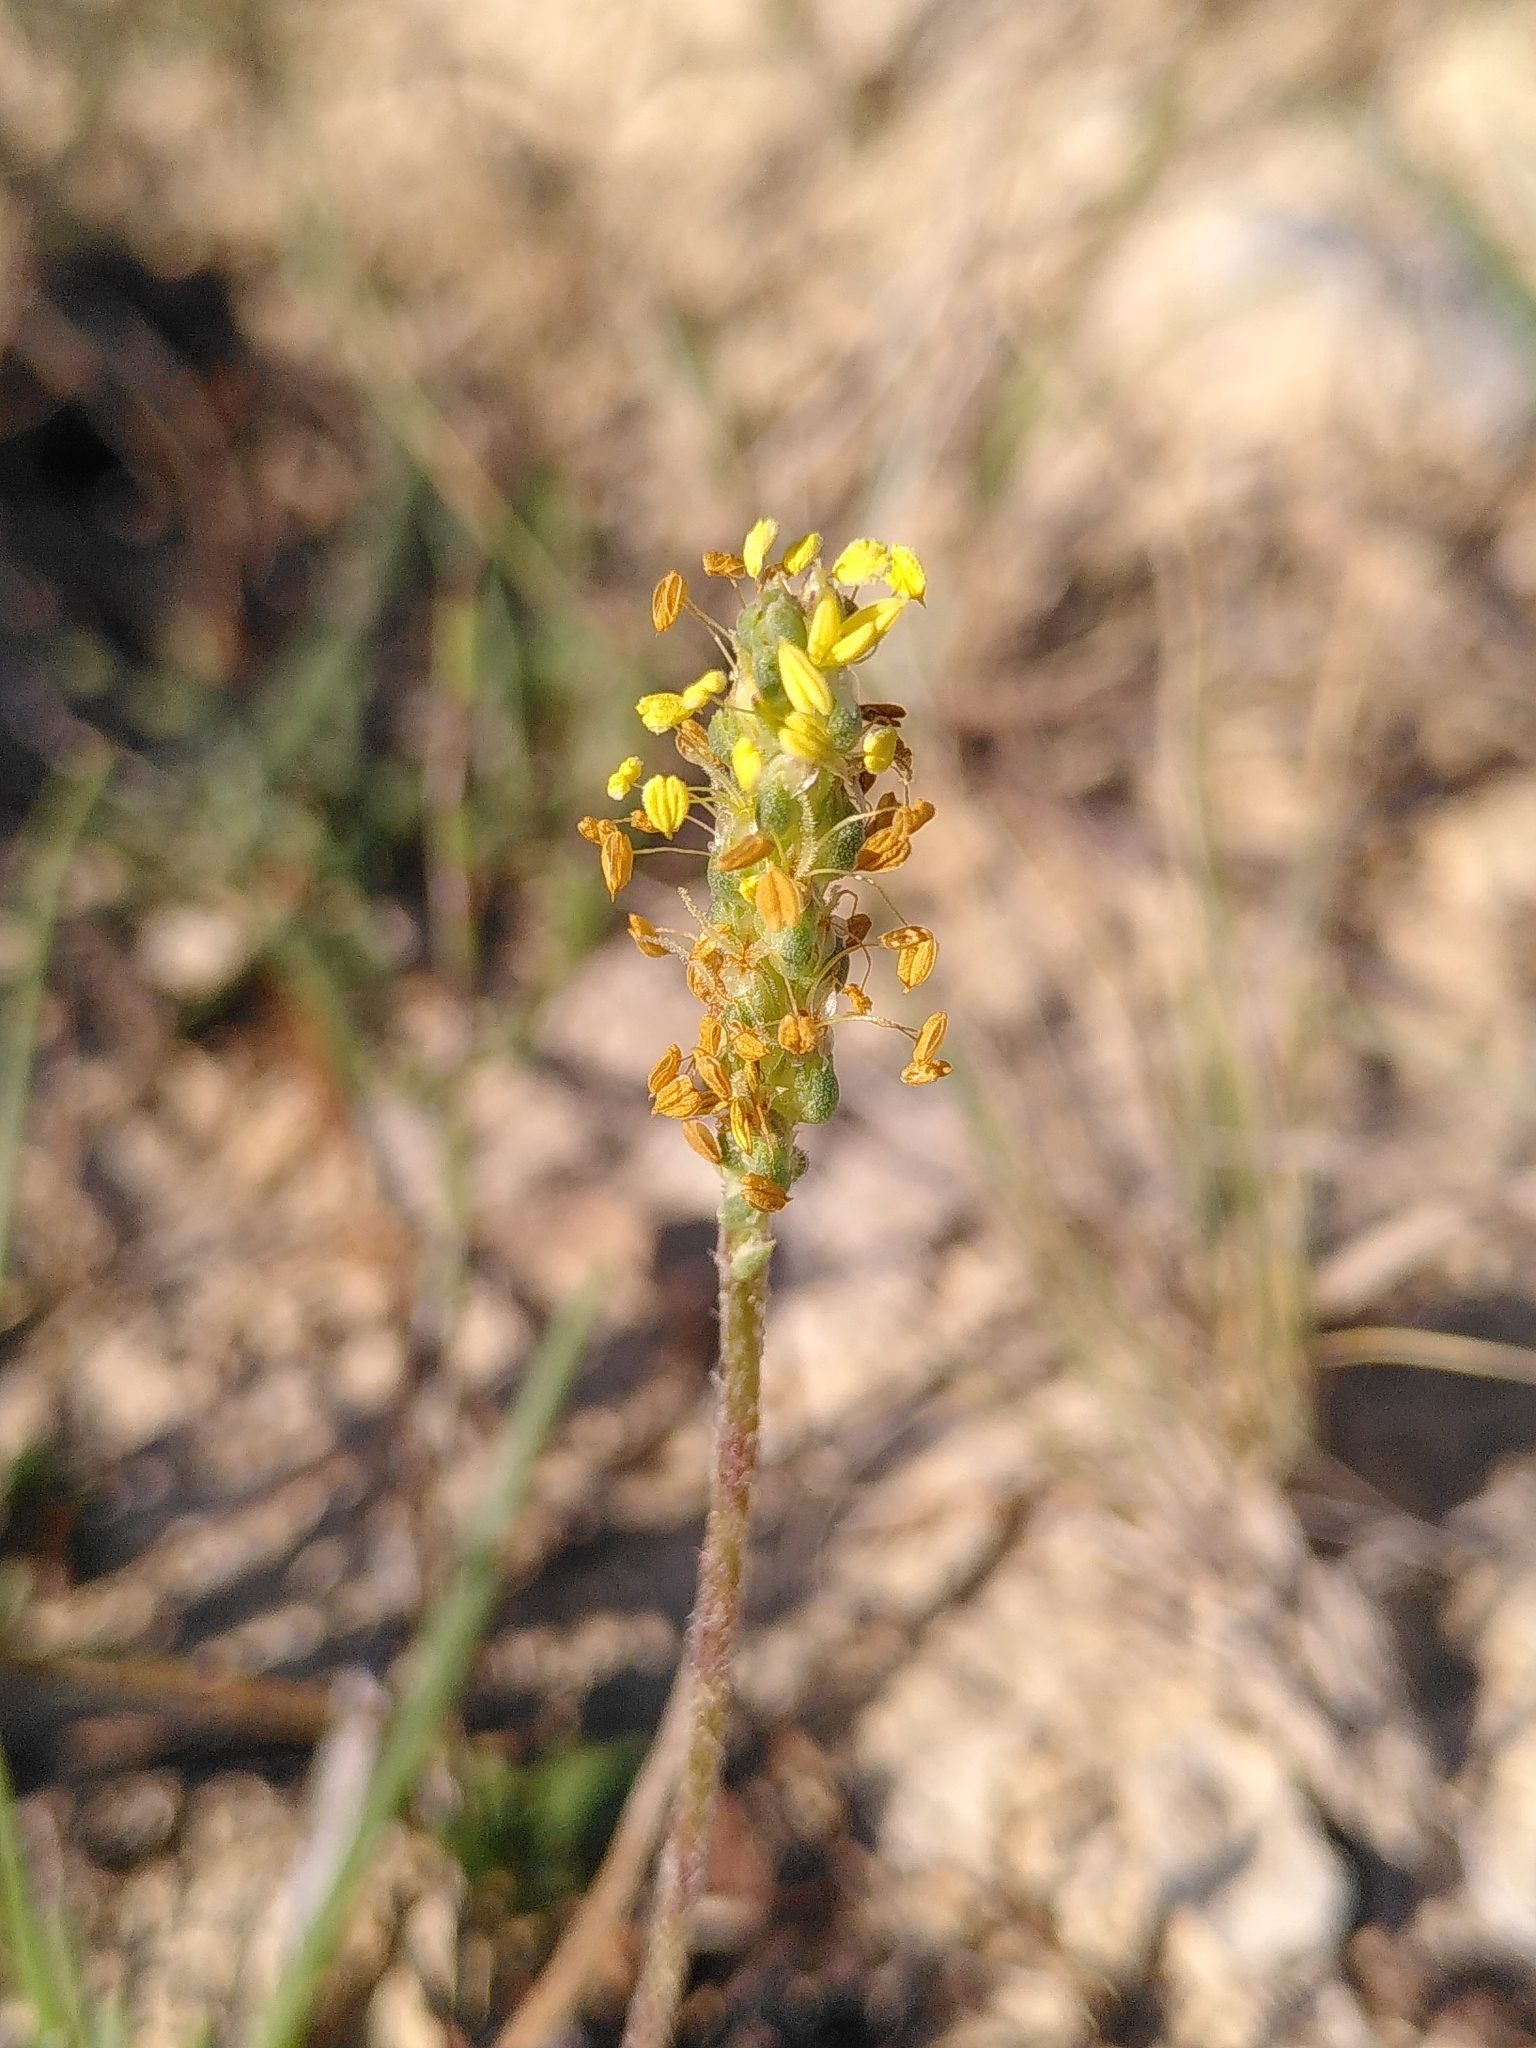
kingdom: Plantae
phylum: Tracheophyta
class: Magnoliopsida
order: Lamiales
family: Plantaginaceae
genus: Plantago
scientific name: Plantago maritima
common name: Sea plantain
